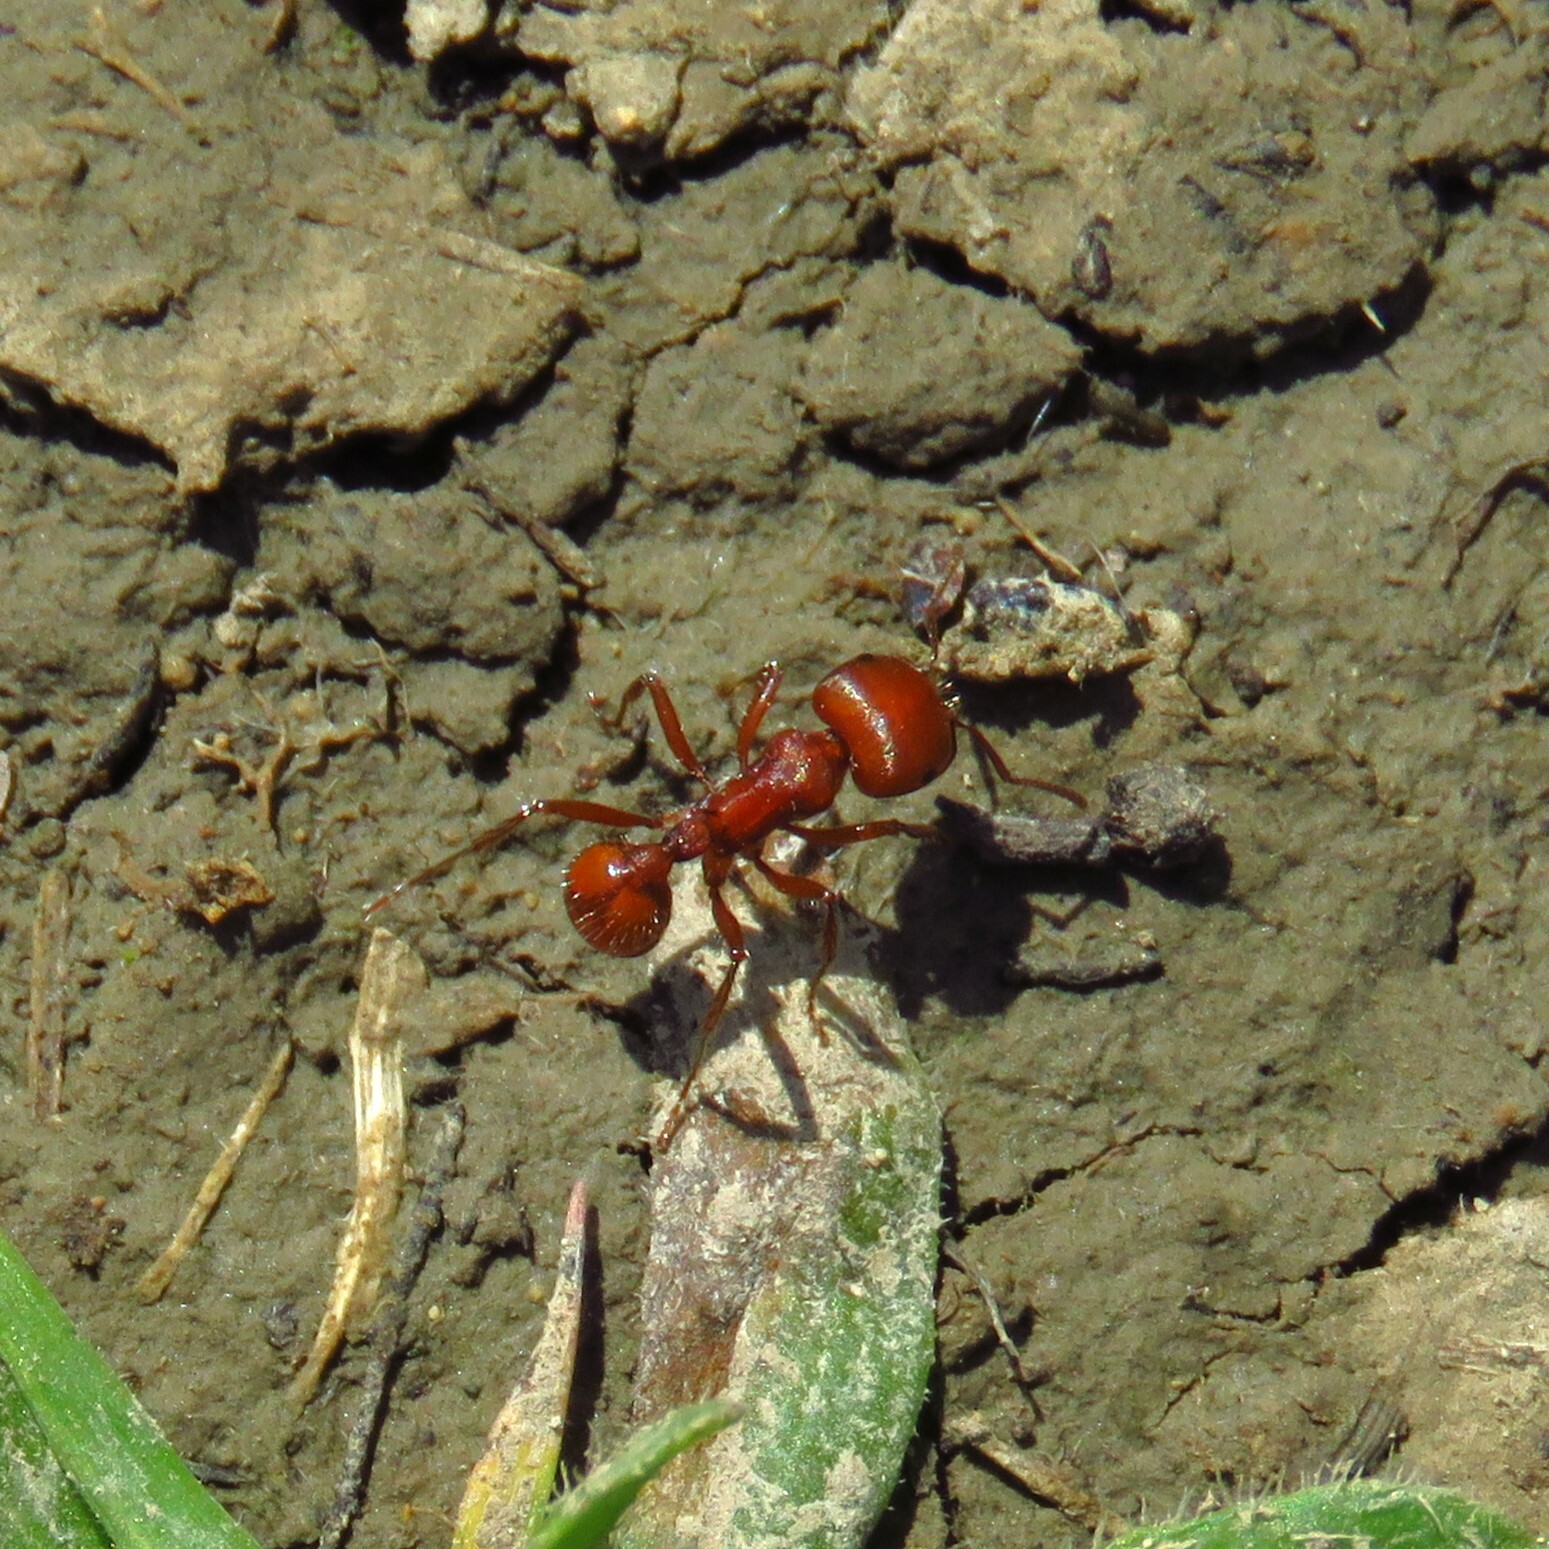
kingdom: Animalia
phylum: Arthropoda
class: Insecta
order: Hymenoptera
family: Formicidae
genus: Pogonomyrmex
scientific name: Pogonomyrmex barbatus
